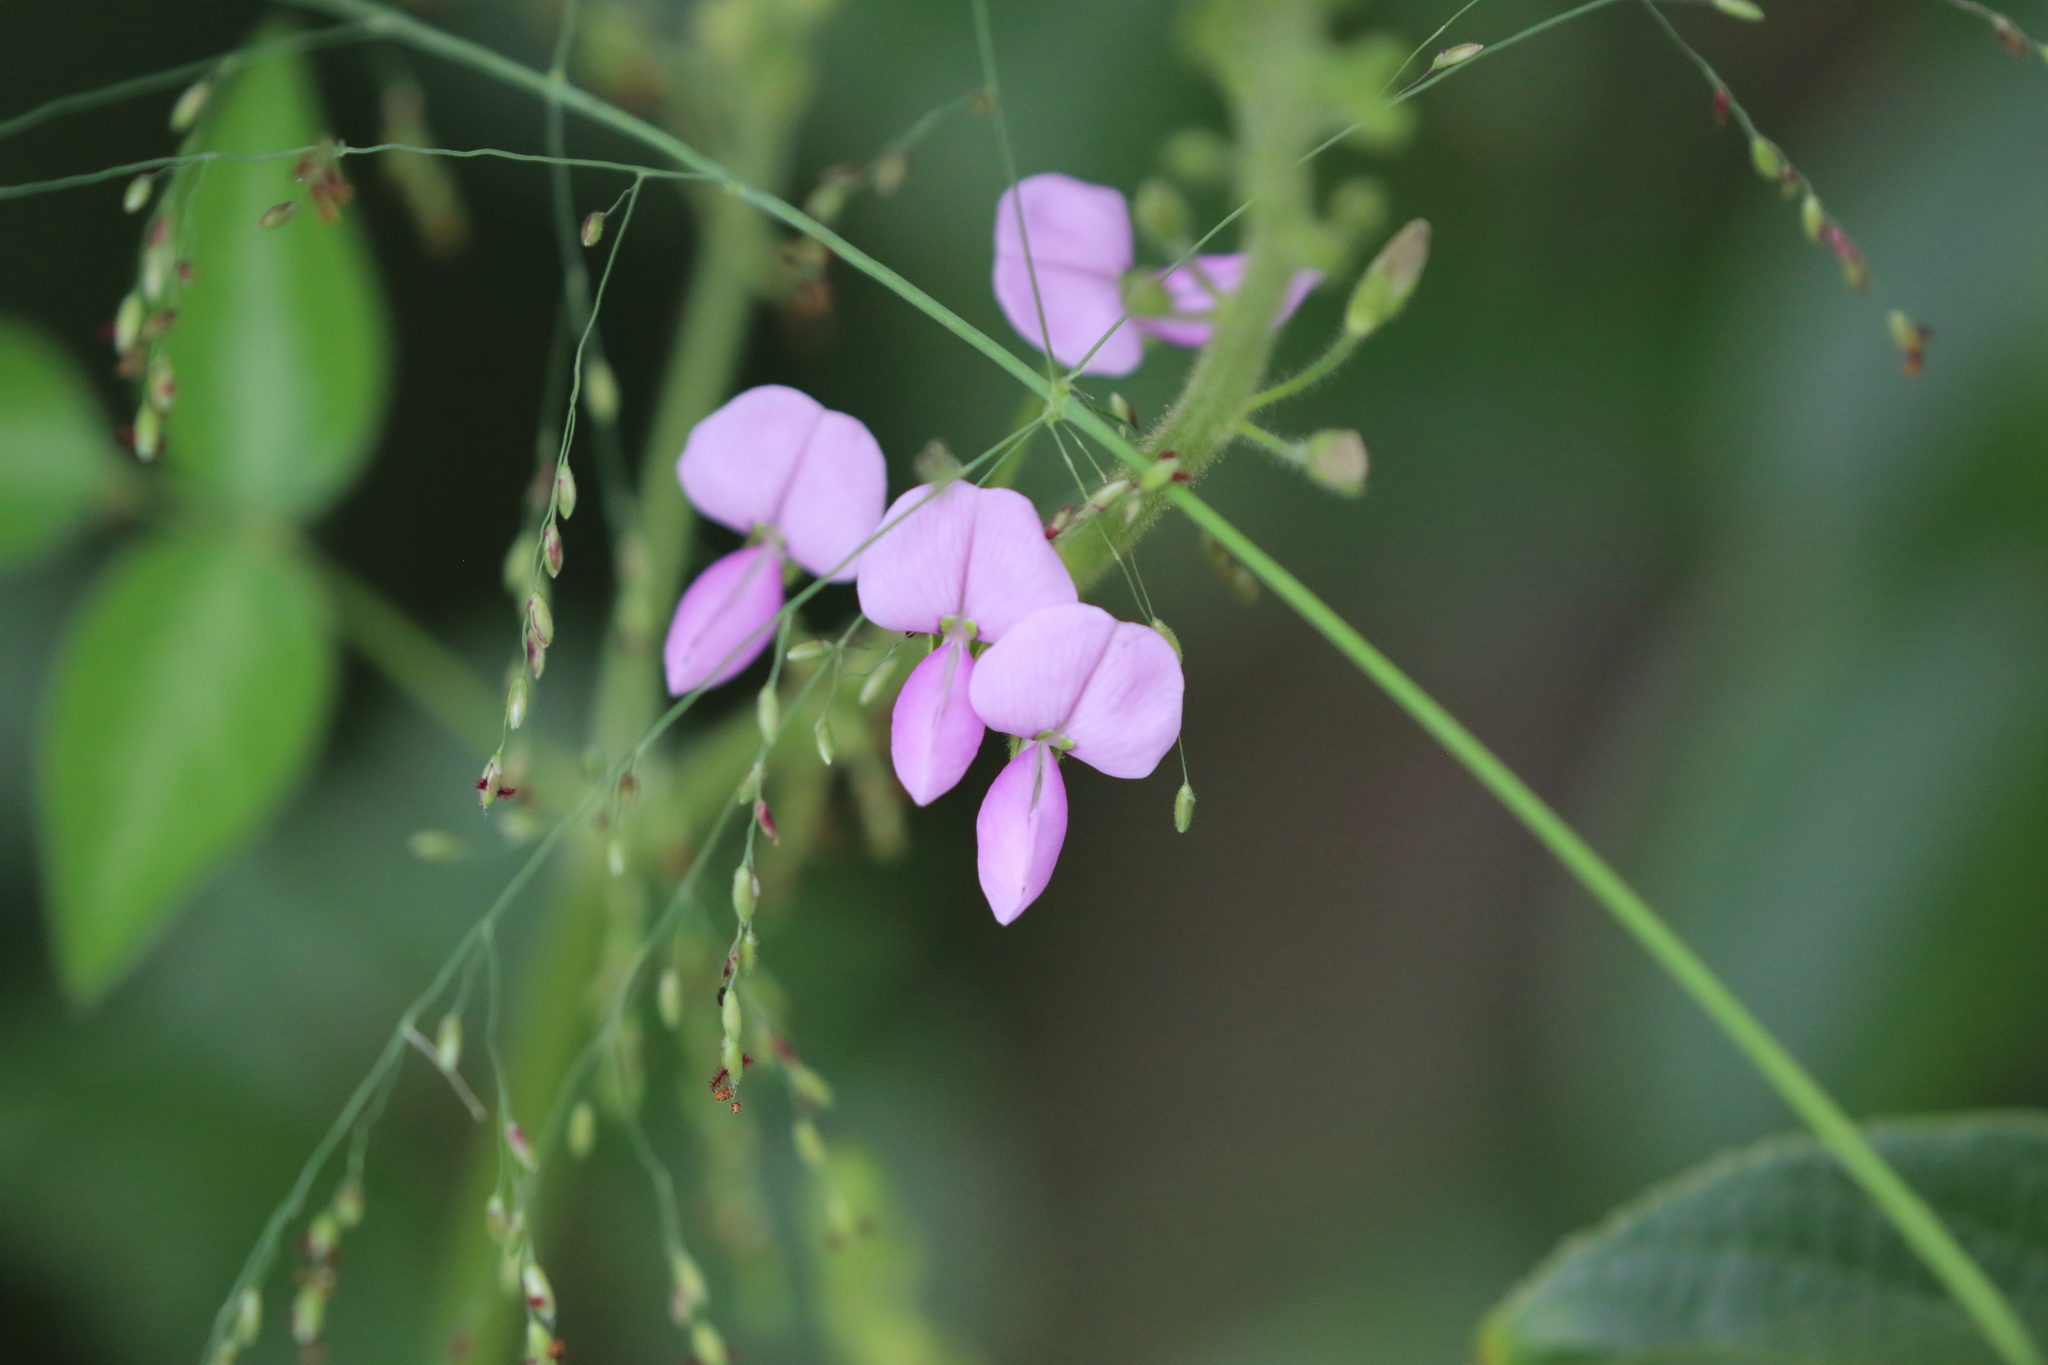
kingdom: Plantae
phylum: Tracheophyta
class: Magnoliopsida
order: Fabales
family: Fabaceae
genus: Desmodium
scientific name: Desmodium uncinatum
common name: Silverleaf desmodium
